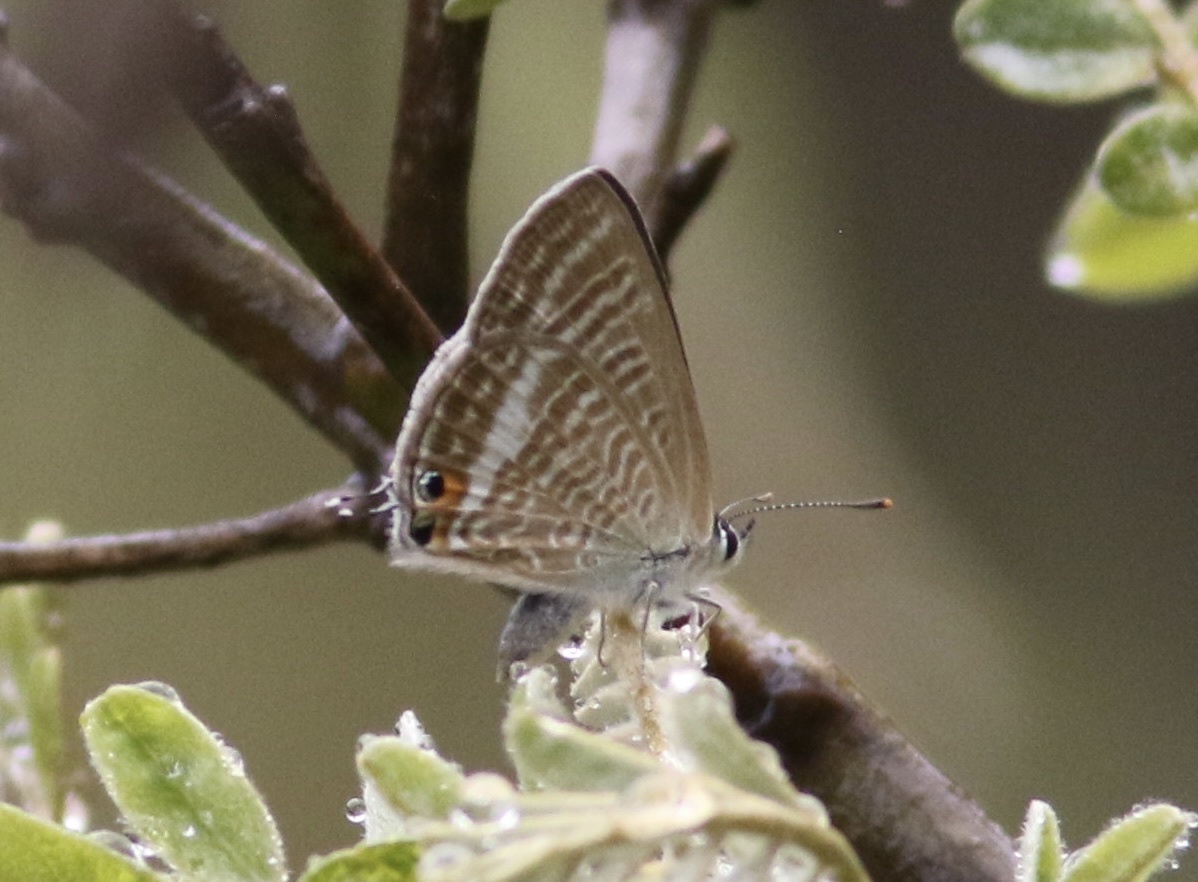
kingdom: Animalia
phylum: Arthropoda
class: Insecta
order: Lepidoptera
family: Lycaenidae
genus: Lampides
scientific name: Lampides boeticus
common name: Long-tailed blue
